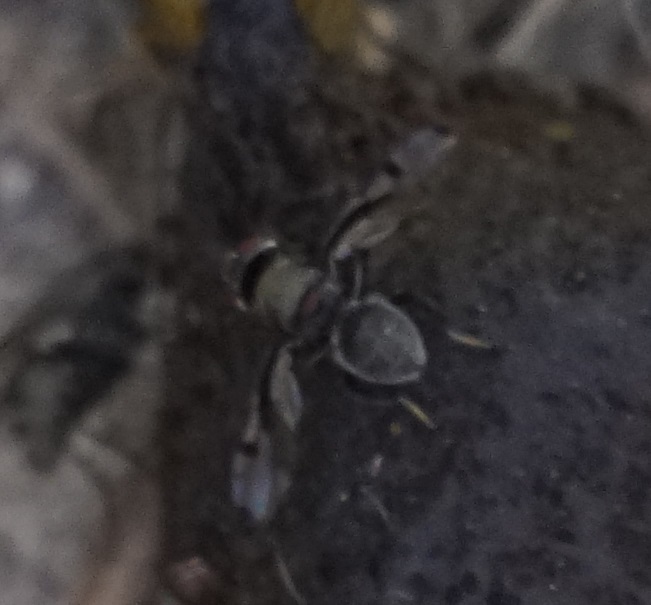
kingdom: Animalia
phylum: Arthropoda
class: Insecta
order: Diptera
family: Platystomatidae
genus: Pogonortalis
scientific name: Pogonortalis doclea
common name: Boatman fly
